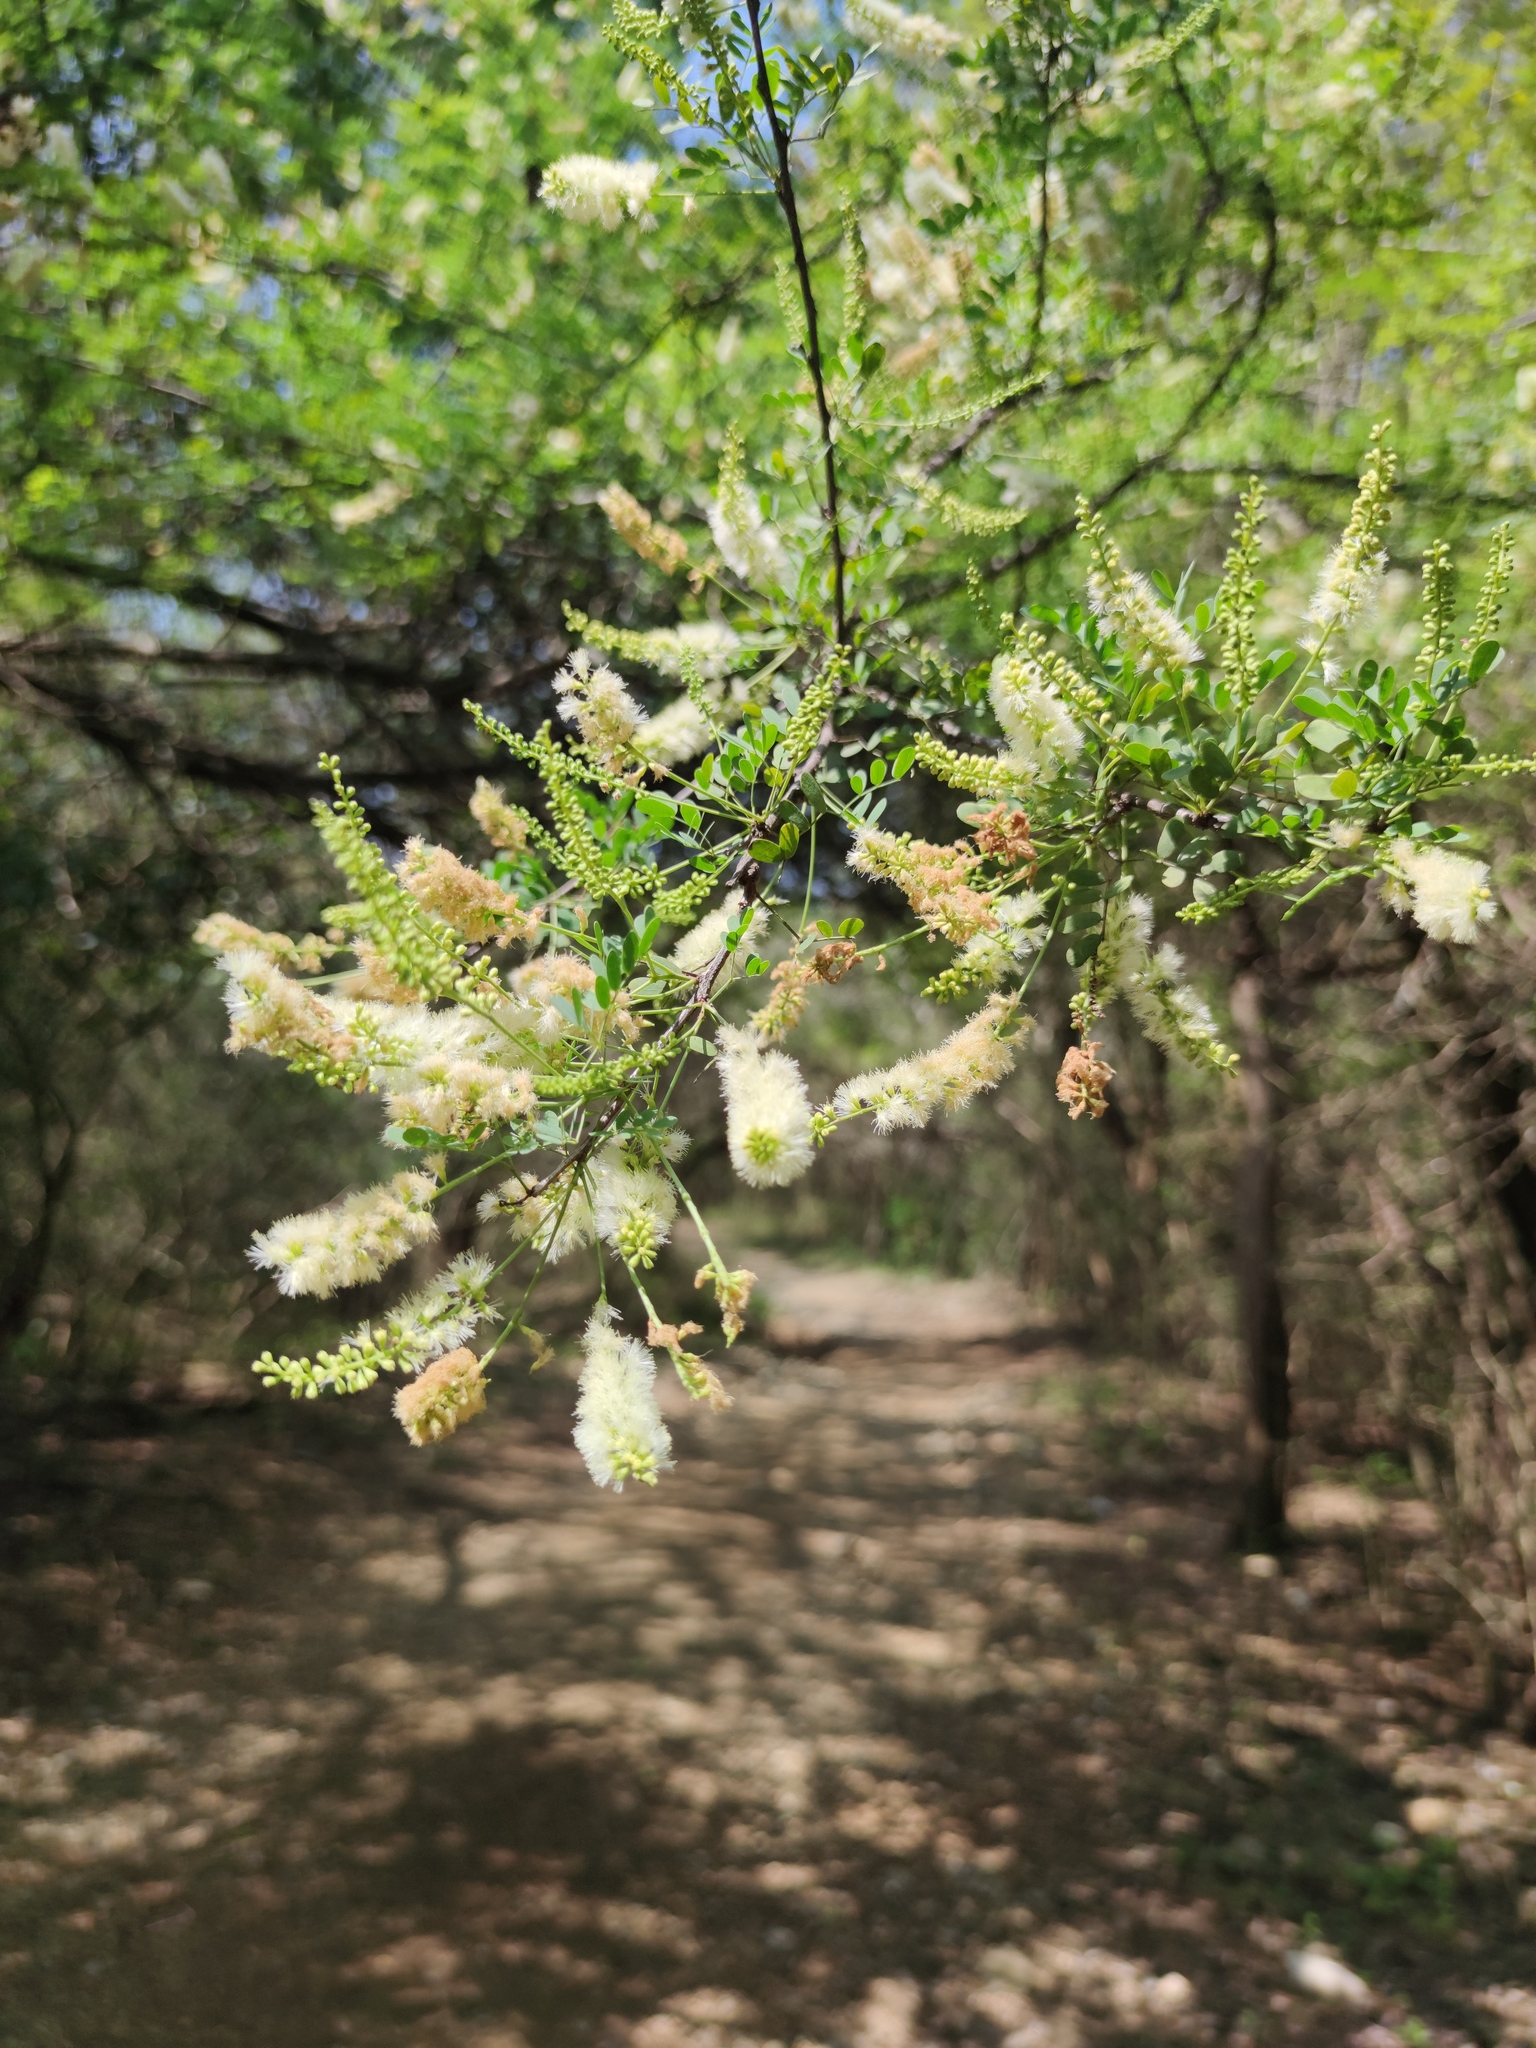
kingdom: Plantae
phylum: Tracheophyta
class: Magnoliopsida
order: Fabales
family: Fabaceae
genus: Senegalia
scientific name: Senegalia wrightii
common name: Texas cat's-claw
